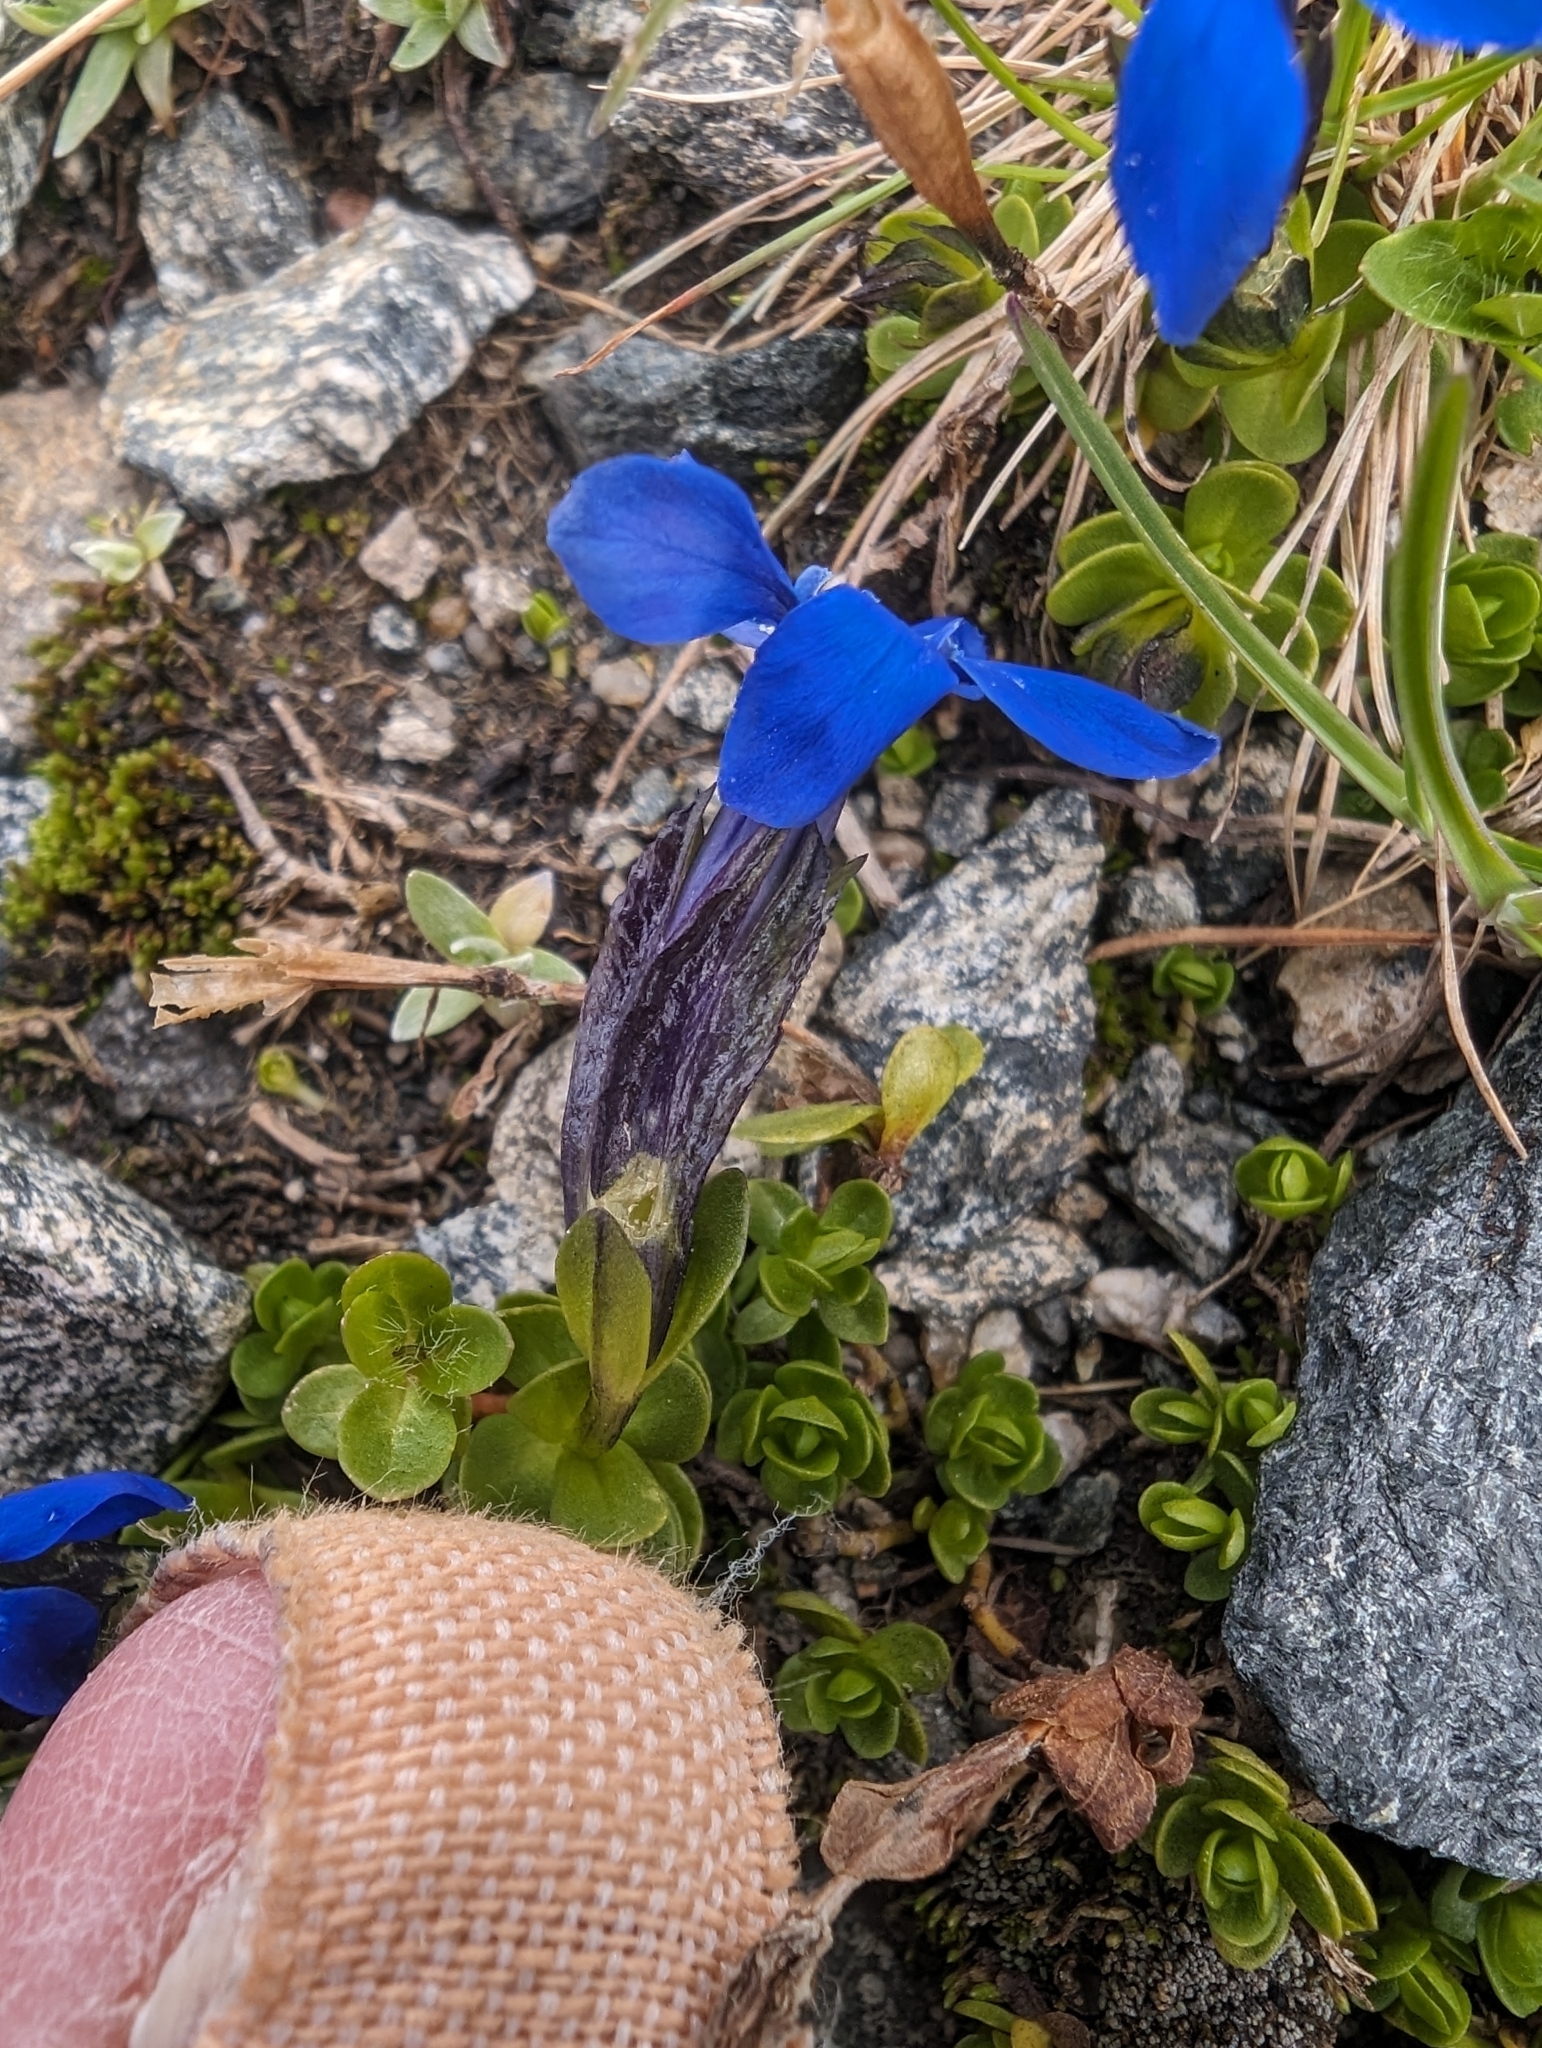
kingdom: Plantae
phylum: Tracheophyta
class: Magnoliopsida
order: Gentianales
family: Gentianaceae
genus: Gentiana
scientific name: Gentiana bavarica
